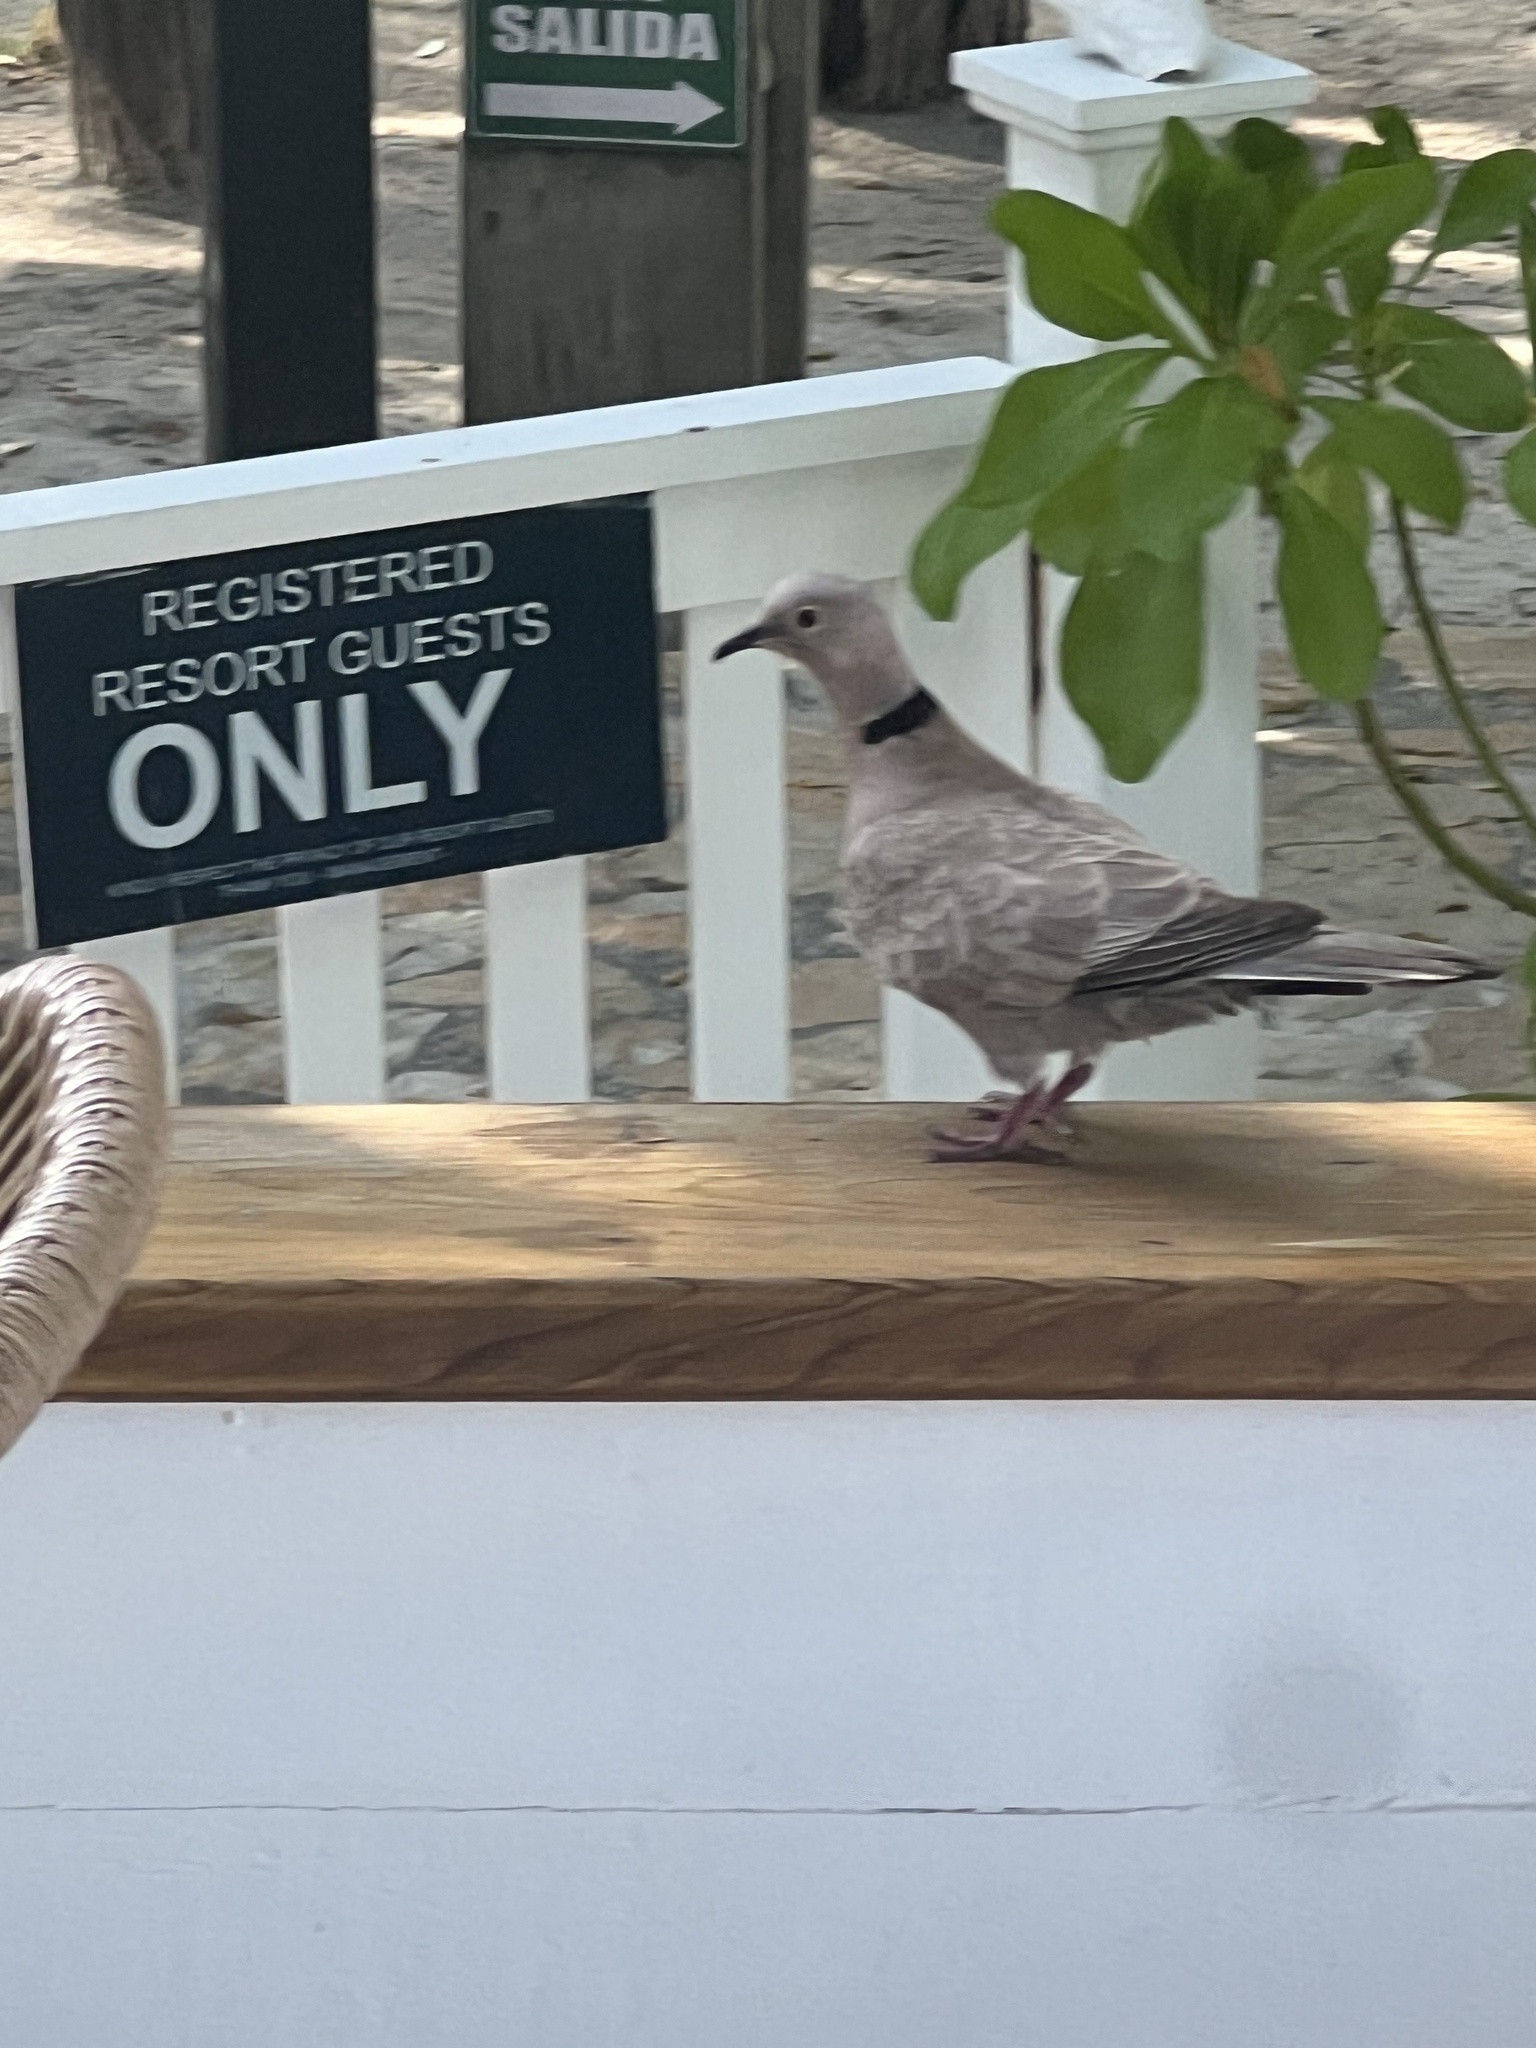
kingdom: Animalia
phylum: Chordata
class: Aves
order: Columbiformes
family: Columbidae
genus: Streptopelia
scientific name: Streptopelia decaocto
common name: Eurasian collared dove
